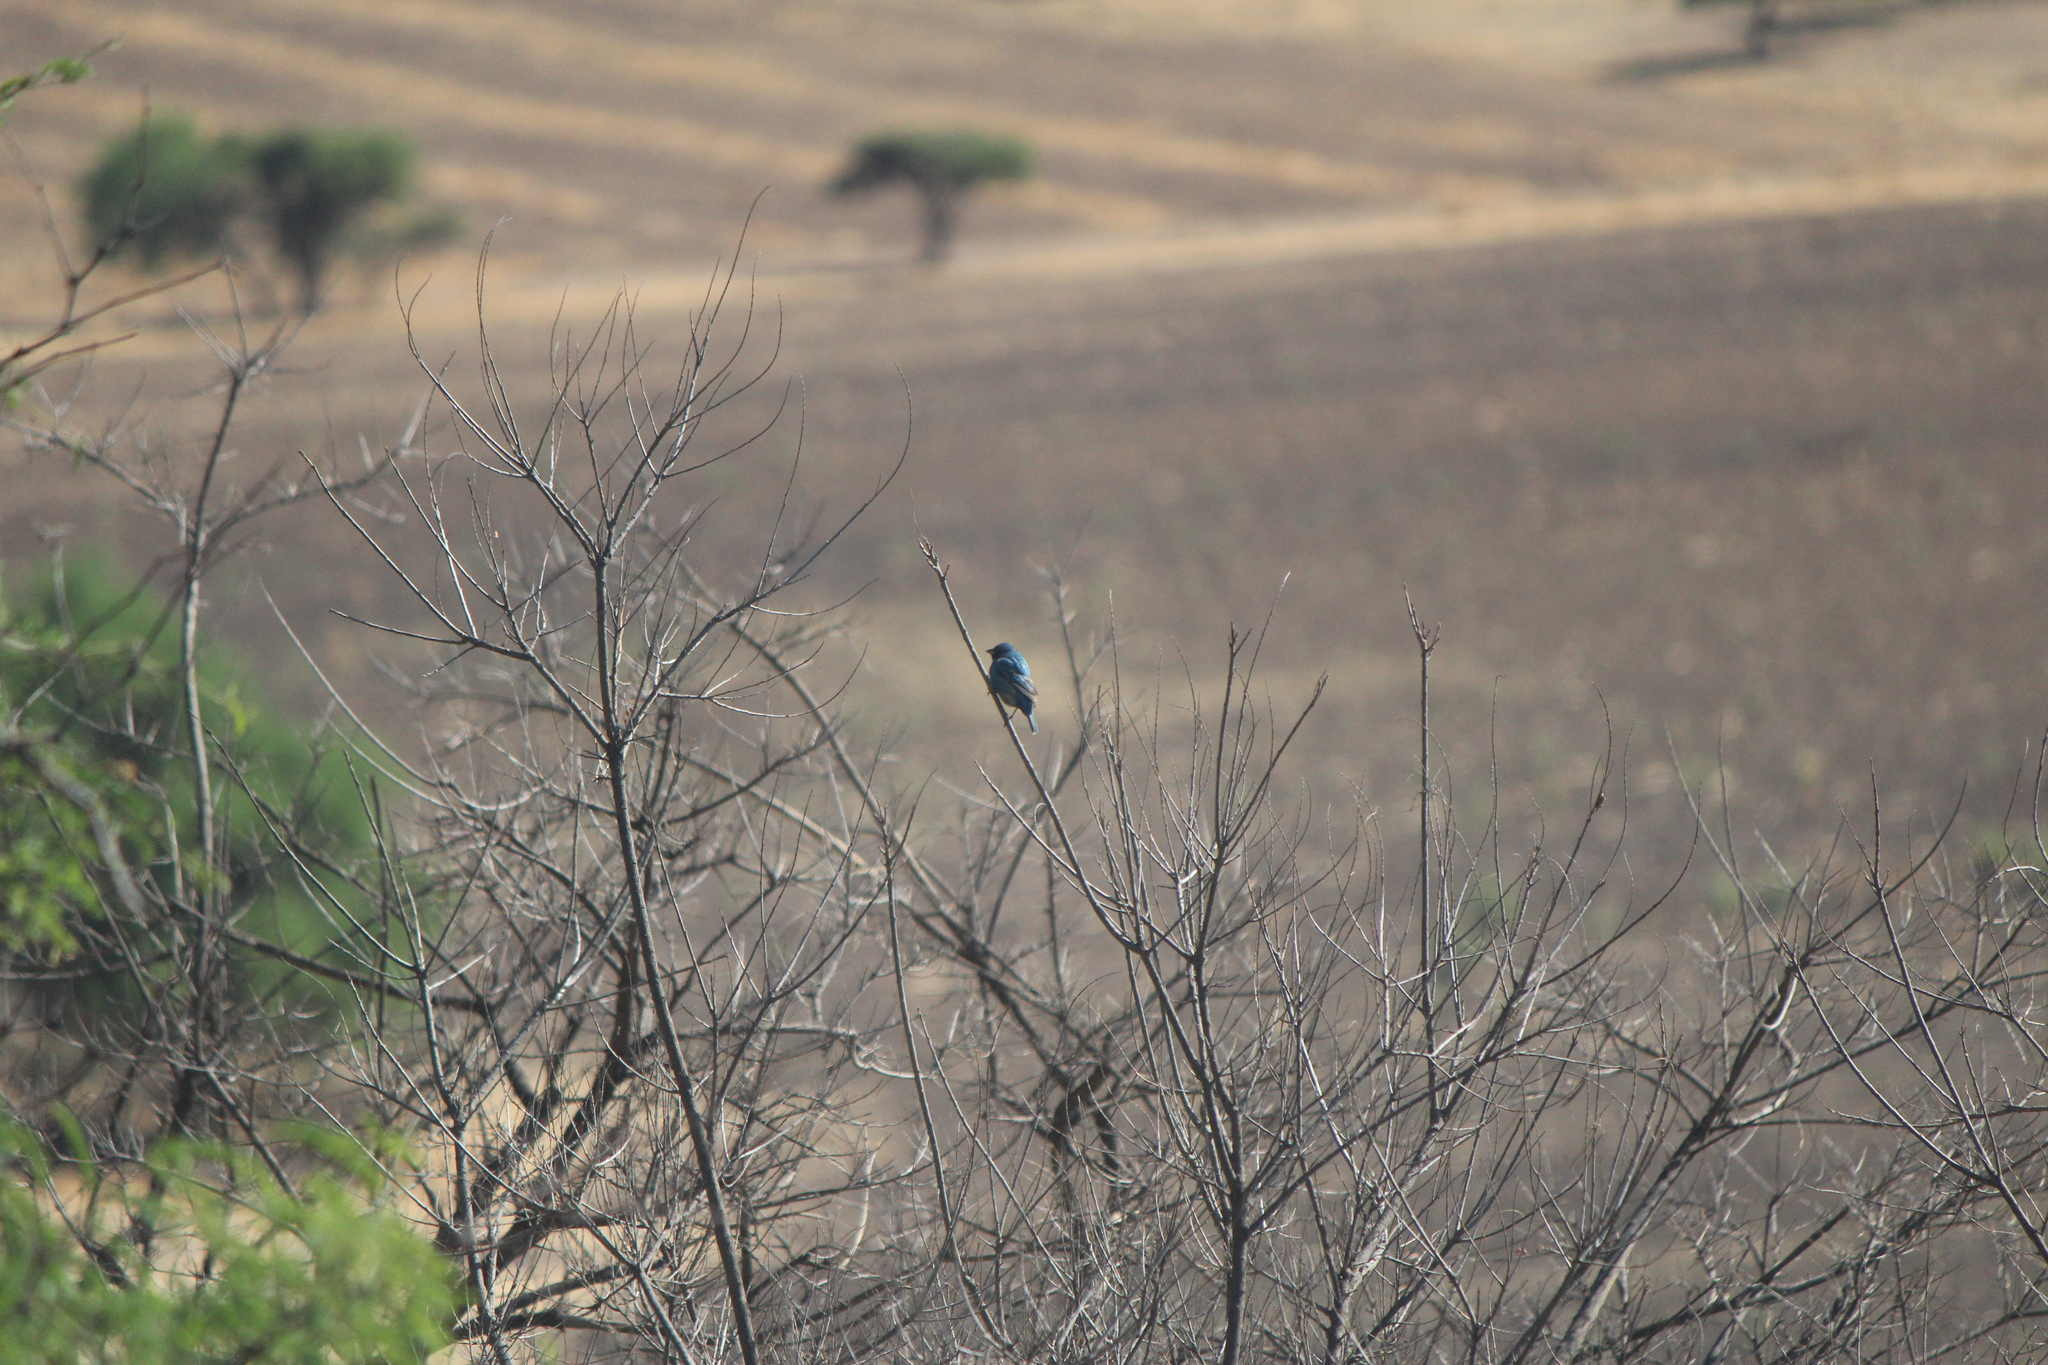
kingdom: Animalia
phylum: Chordata
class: Aves
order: Passeriformes
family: Cardinalidae
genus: Passerina
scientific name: Passerina cyanea
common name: Indigo bunting
